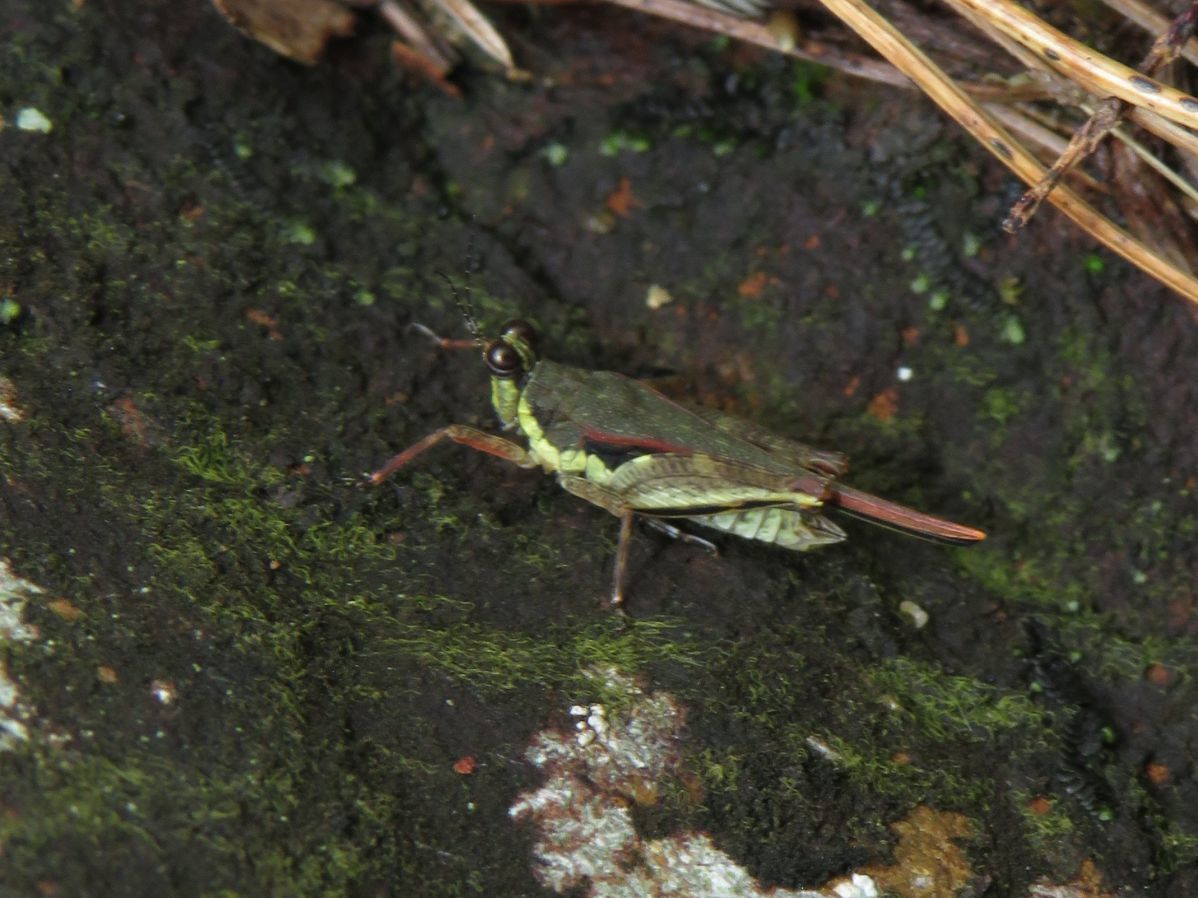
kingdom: Animalia
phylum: Arthropoda
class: Insecta
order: Orthoptera
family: Tetrigidae
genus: Hebarditettix
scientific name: Hebarditettix triangularis
